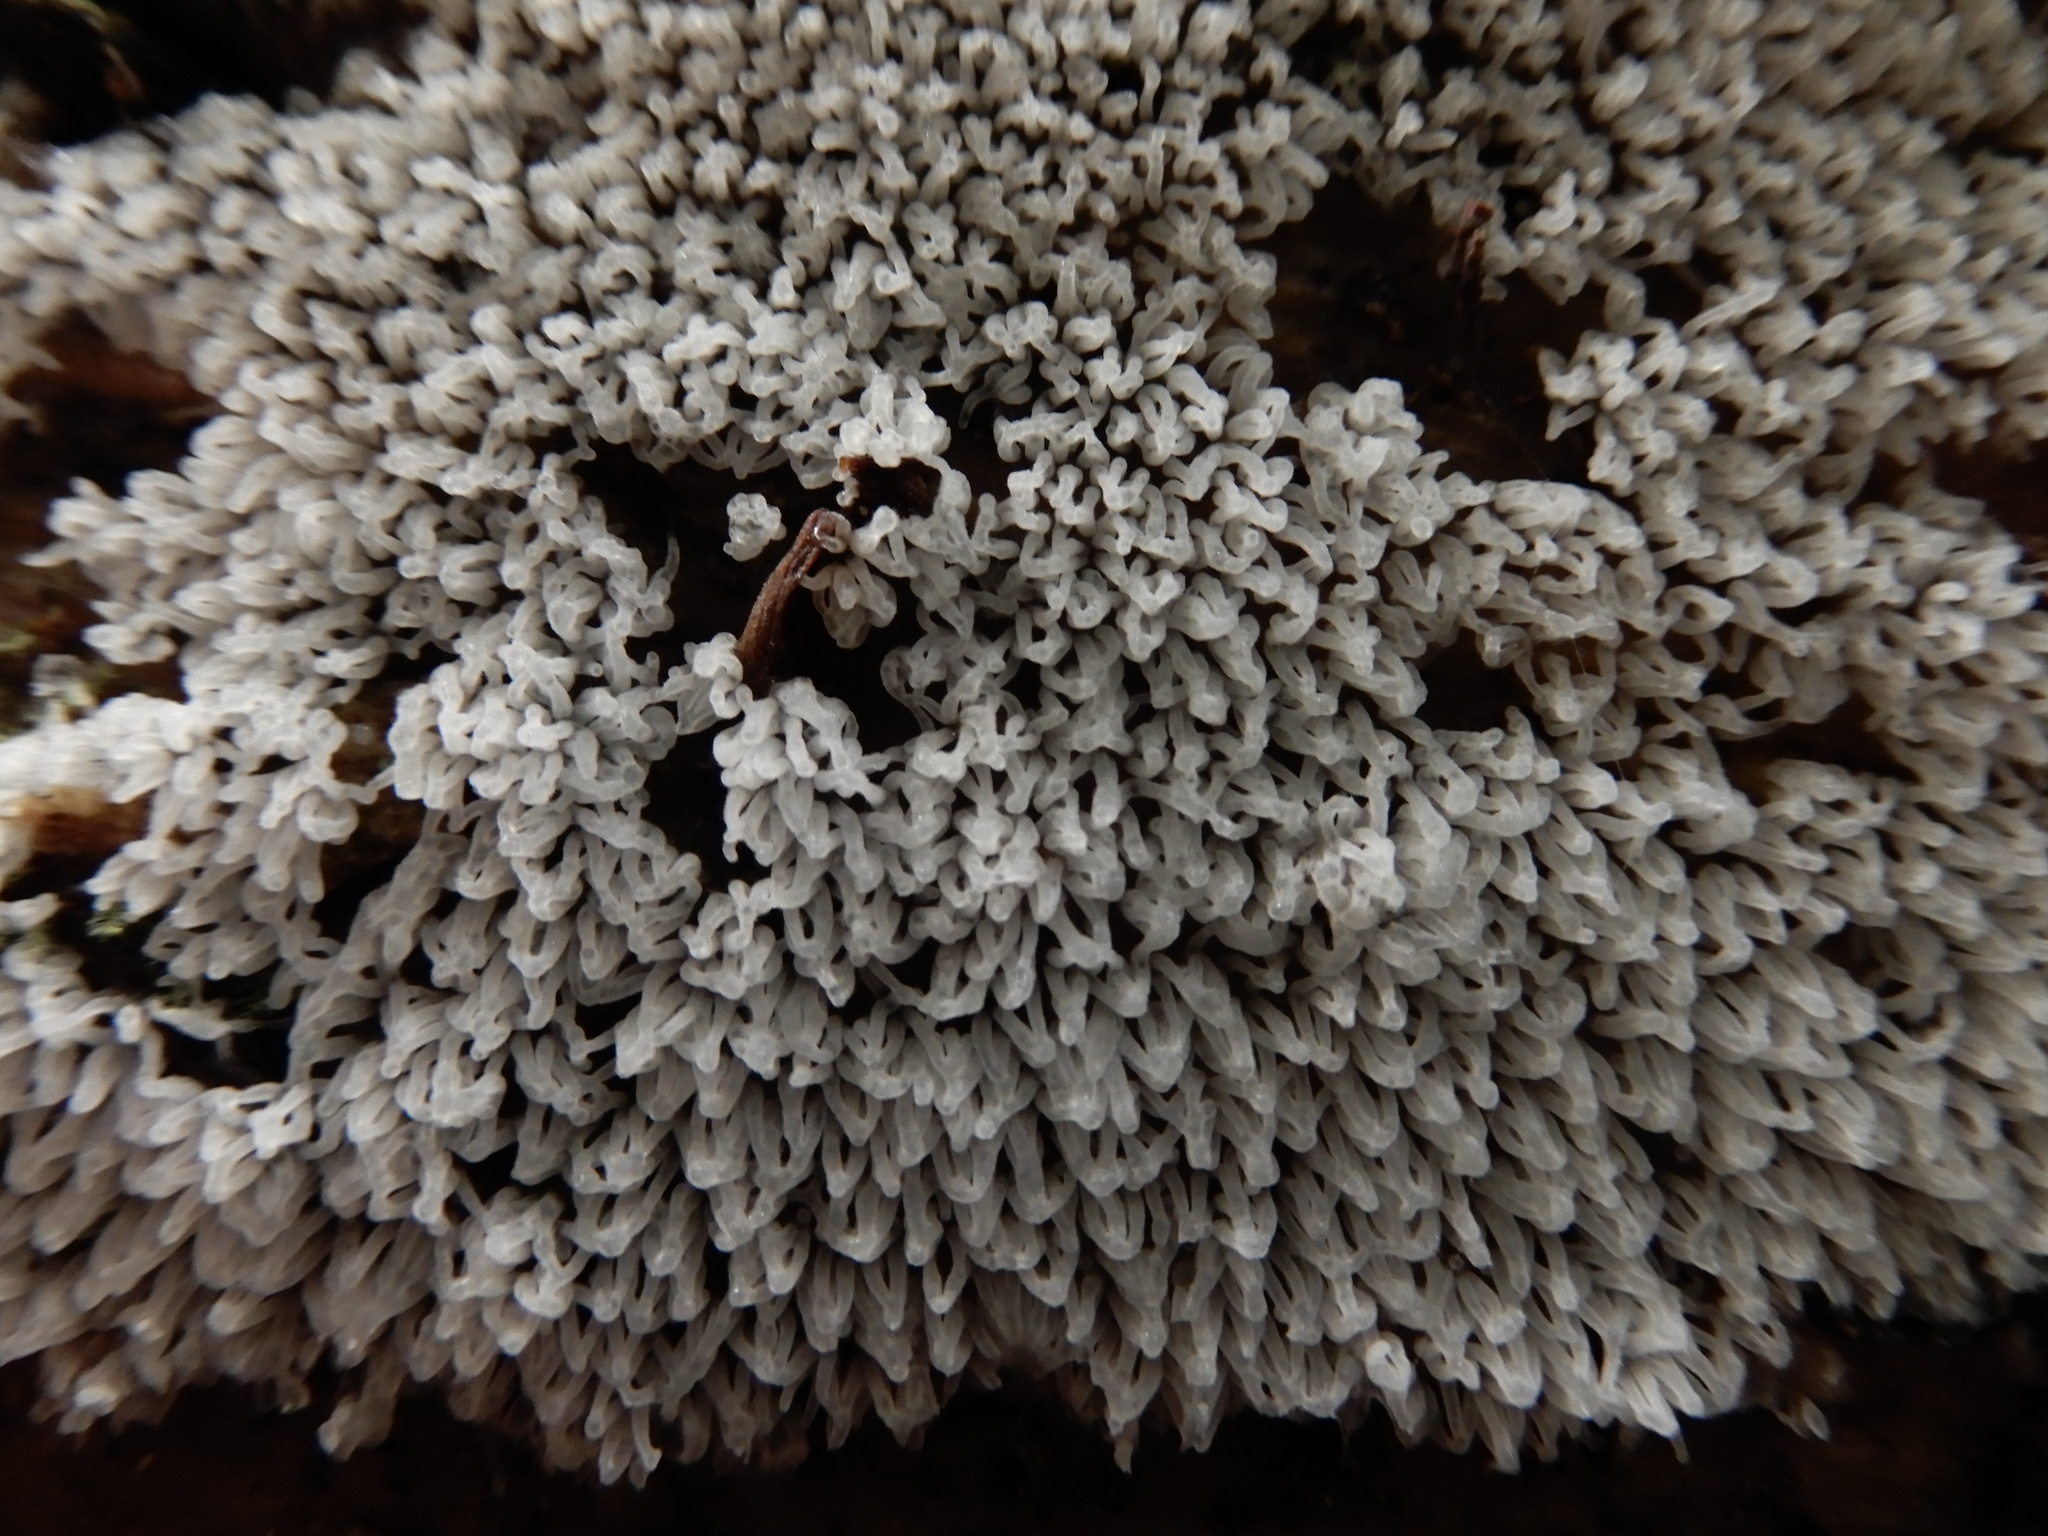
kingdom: Protozoa
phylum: Mycetozoa
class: Protosteliomycetes
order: Ceratiomyxales
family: Ceratiomyxaceae
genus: Ceratiomyxa
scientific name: Ceratiomyxa fruticulosa
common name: Honeycomb coral slime mold
